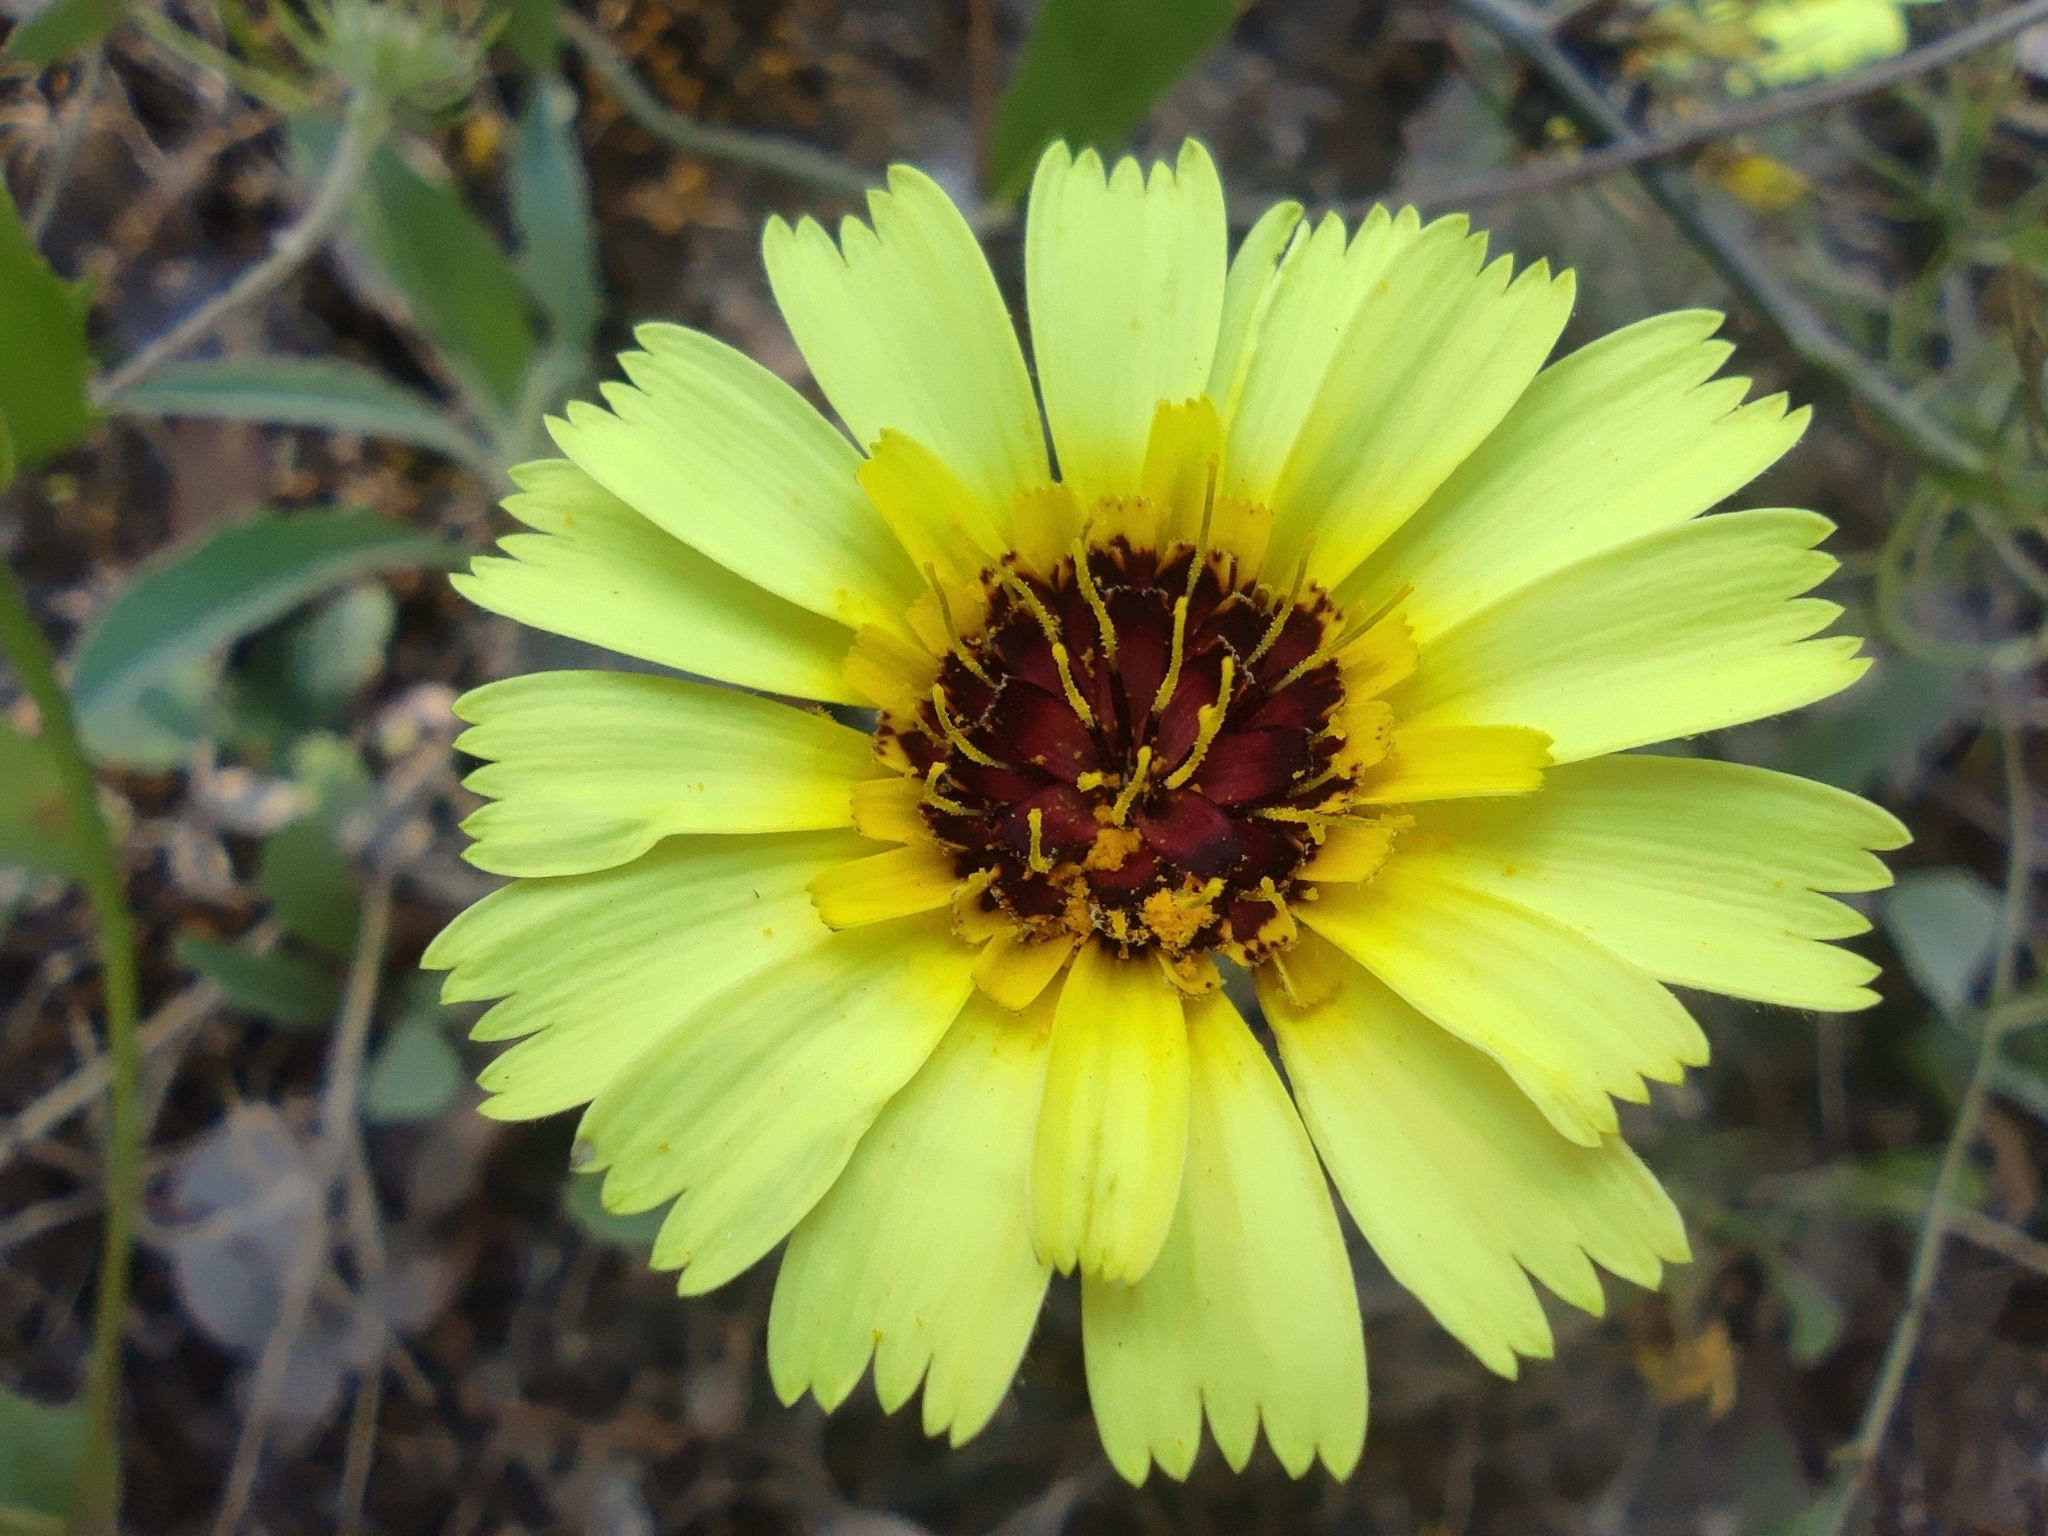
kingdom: Plantae
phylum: Tracheophyta
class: Magnoliopsida
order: Asterales
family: Asteraceae
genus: Tolpis
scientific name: Tolpis barbata
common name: Yellow hawkweed
